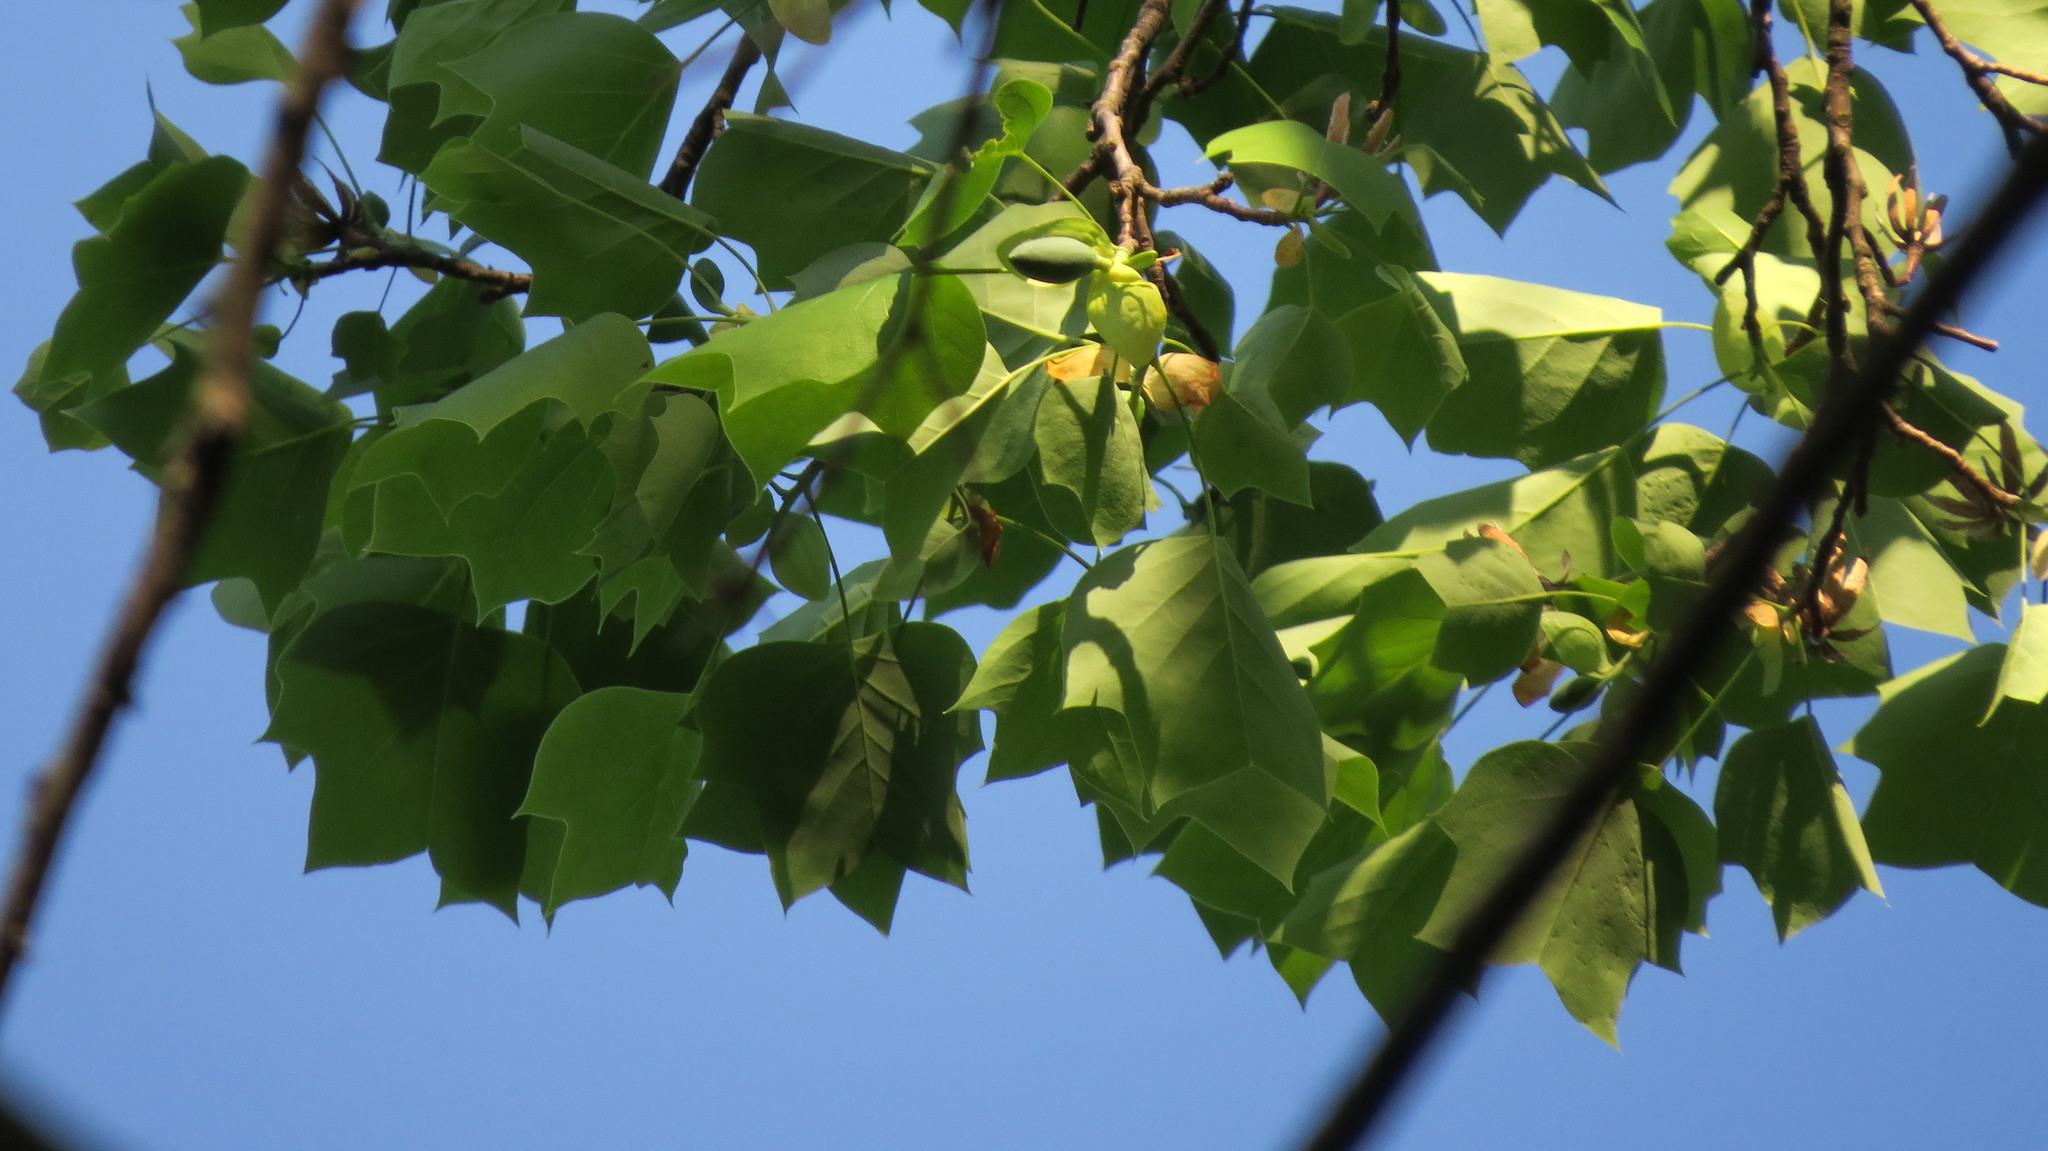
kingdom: Plantae
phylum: Tracheophyta
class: Magnoliopsida
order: Magnoliales
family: Magnoliaceae
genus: Liriodendron
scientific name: Liriodendron tulipifera
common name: Tulip tree
